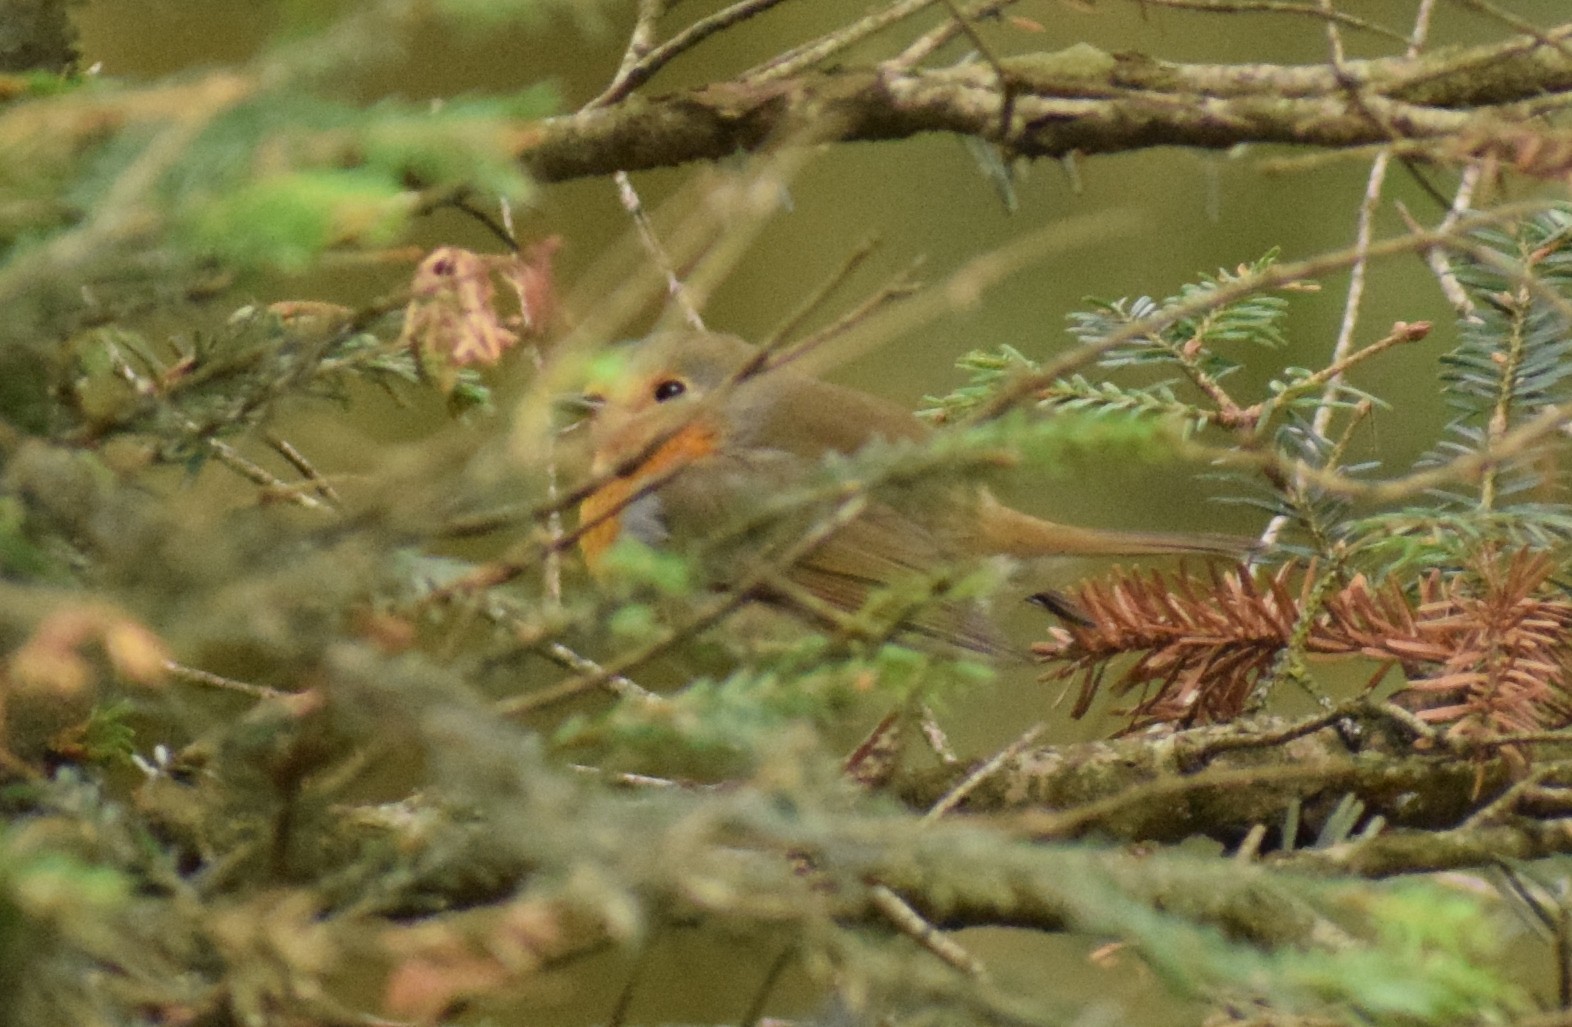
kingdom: Animalia
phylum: Chordata
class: Aves
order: Passeriformes
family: Muscicapidae
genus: Erithacus
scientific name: Erithacus rubecula
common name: European robin
